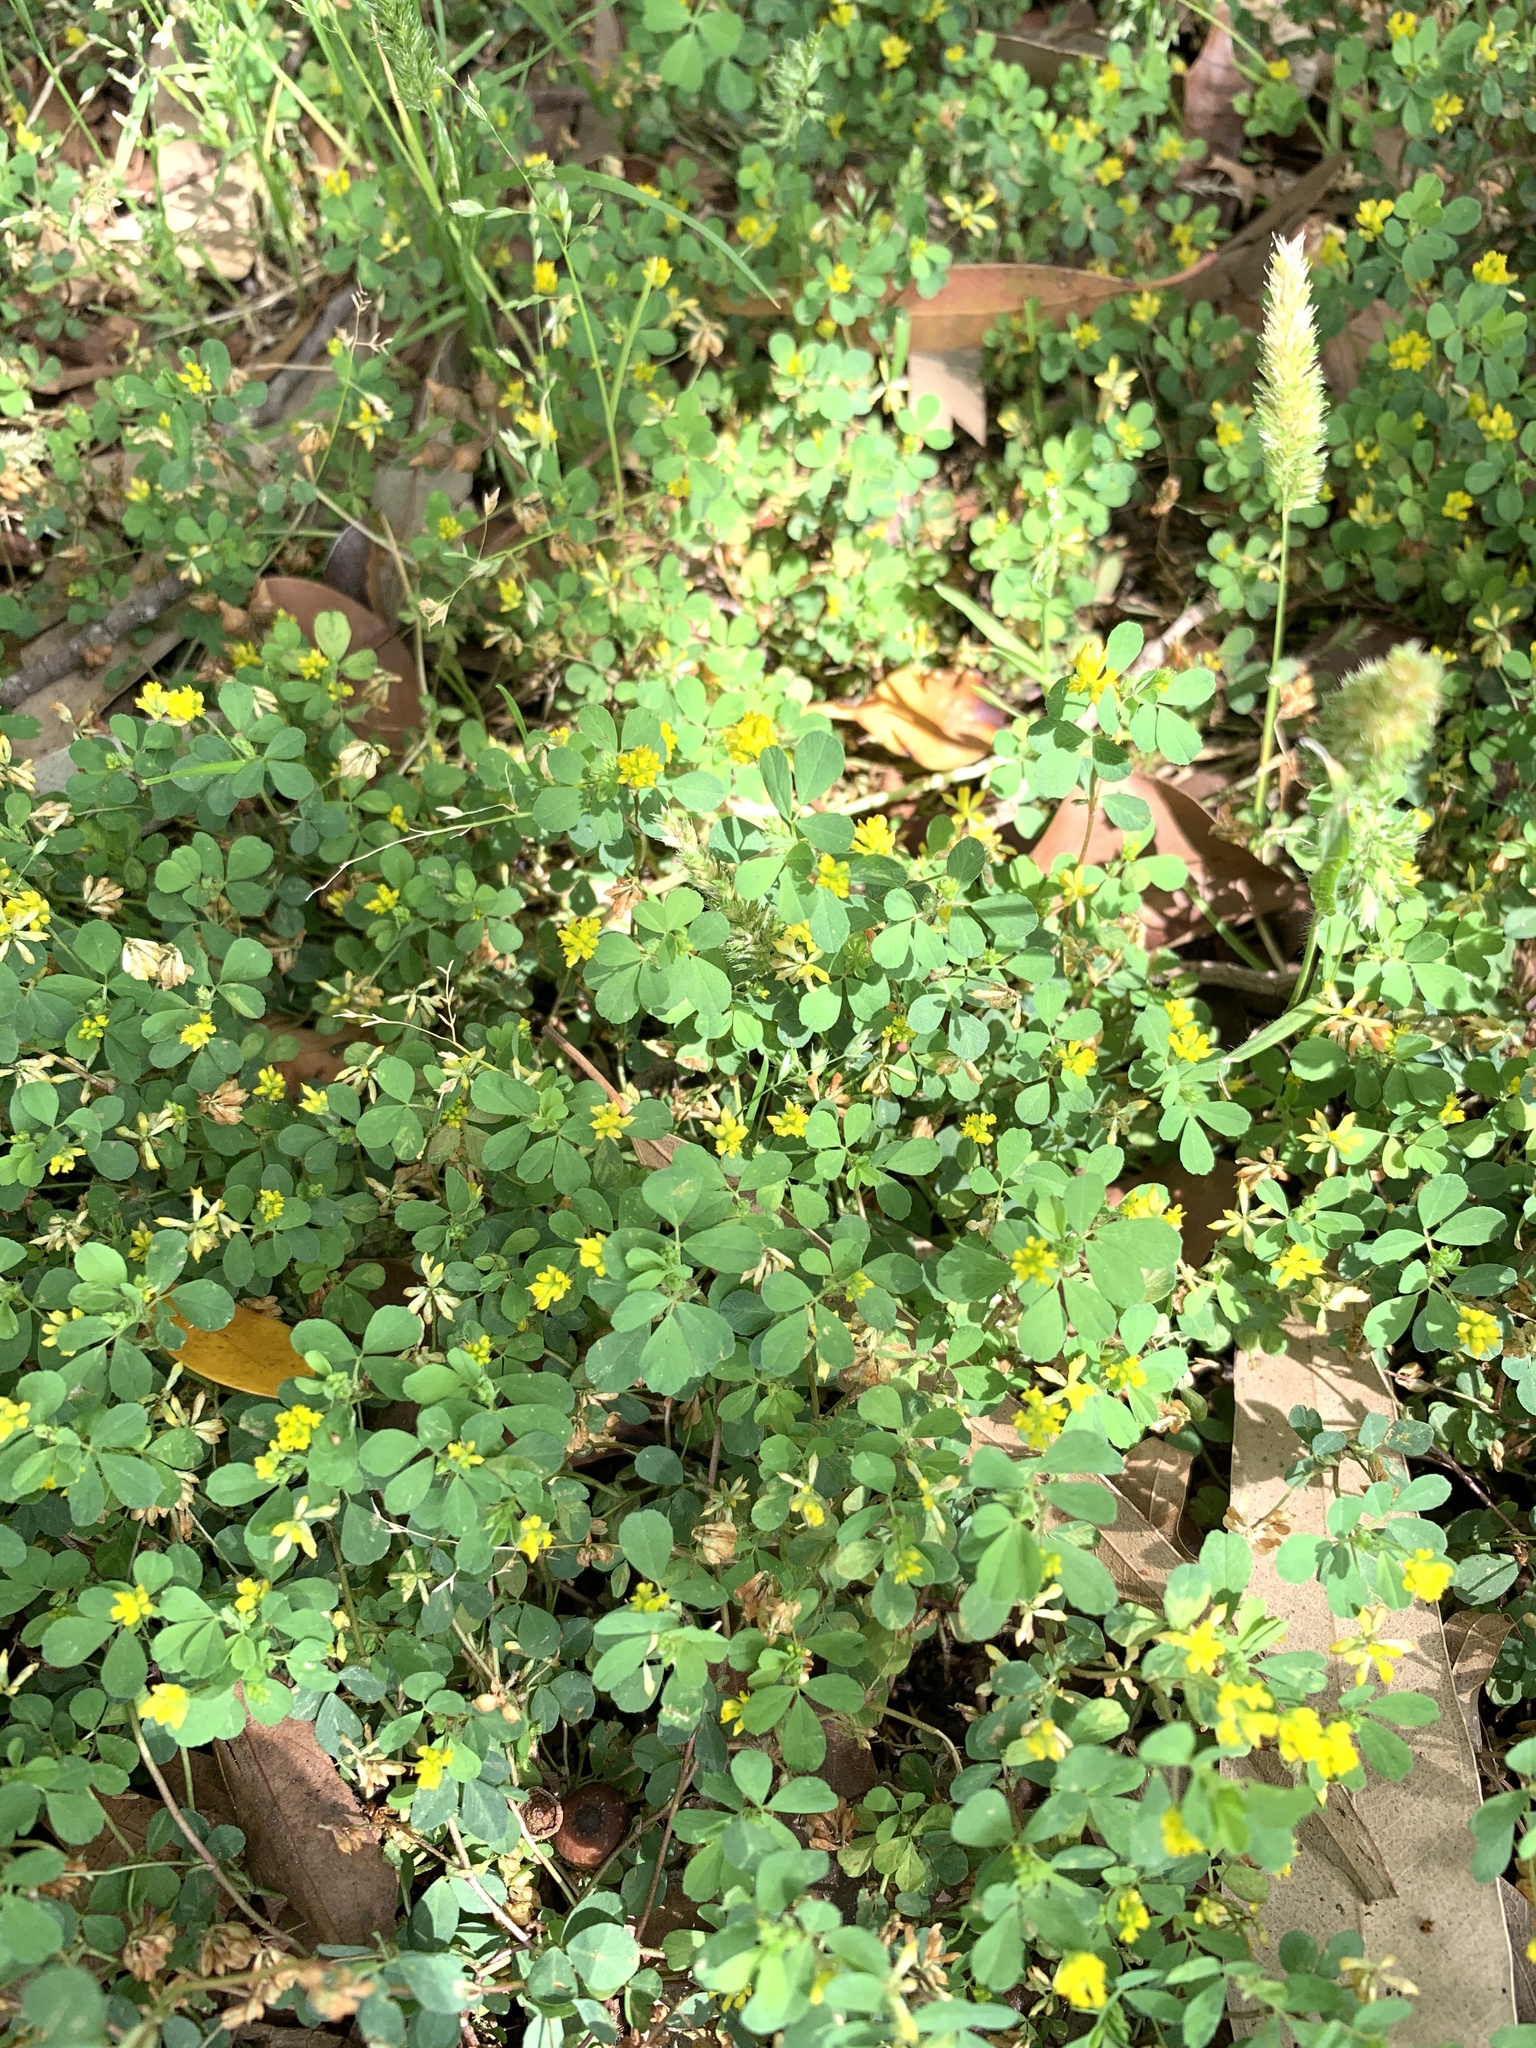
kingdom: Plantae
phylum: Tracheophyta
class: Magnoliopsida
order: Fabales
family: Fabaceae
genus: Trifolium
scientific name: Trifolium dubium
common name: Suckling clover
